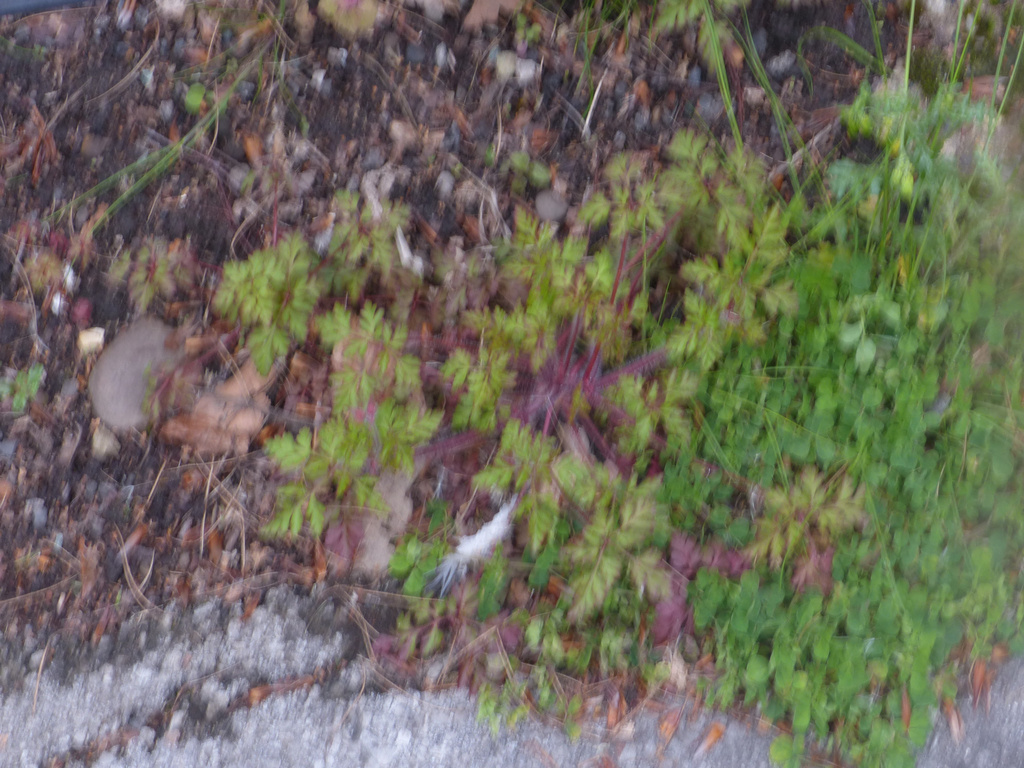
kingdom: Plantae
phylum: Tracheophyta
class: Magnoliopsida
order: Geraniales
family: Geraniaceae
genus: Geranium
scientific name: Geranium robertianum
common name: Herb-robert
